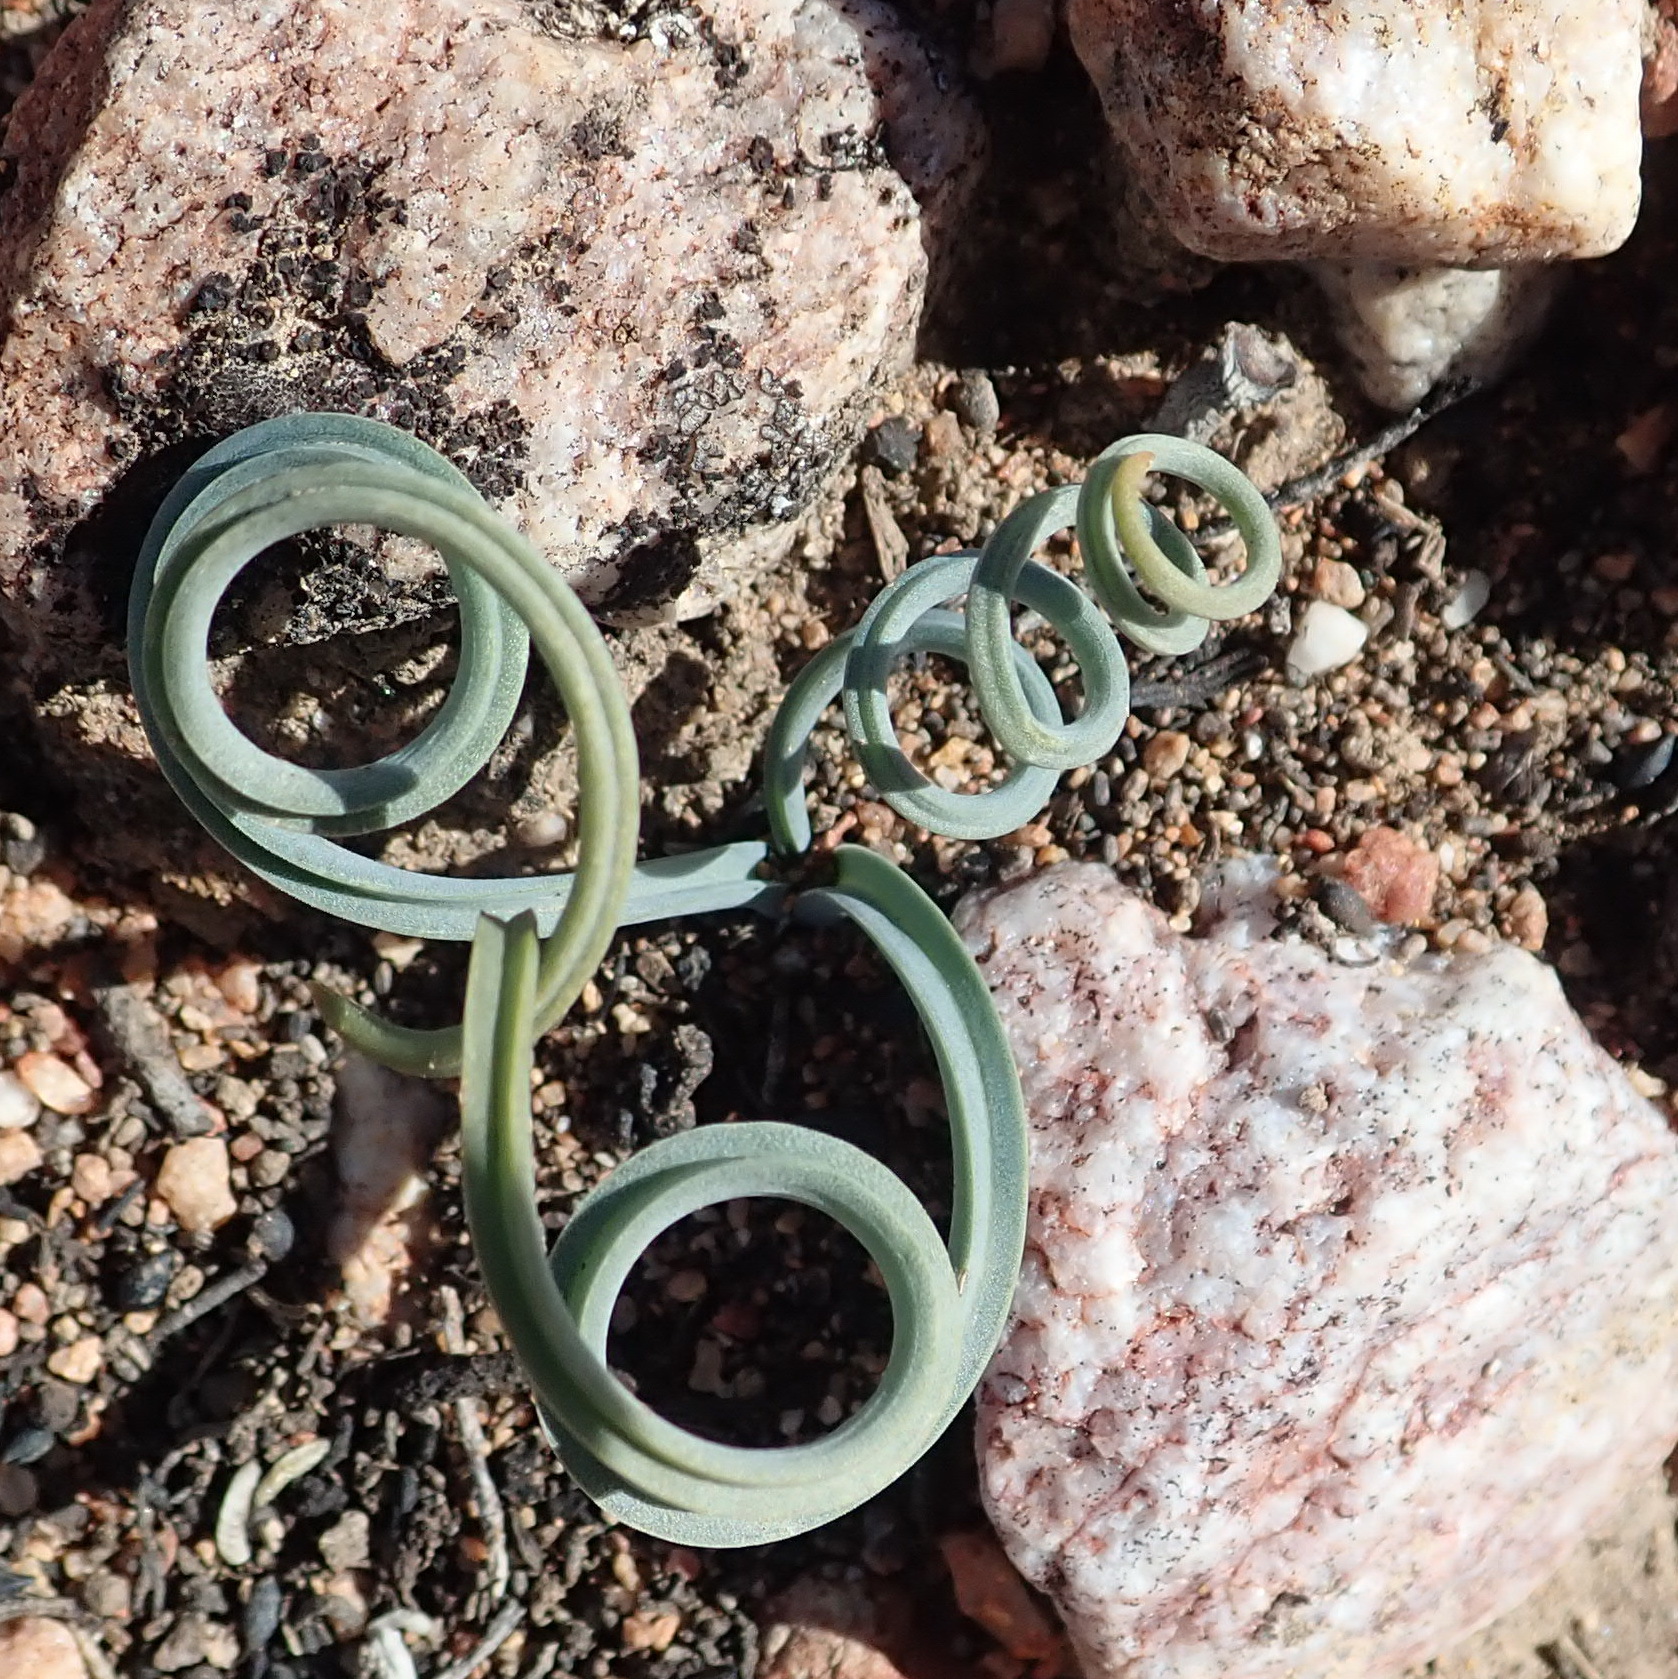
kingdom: Plantae
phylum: Tracheophyta
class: Liliopsida
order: Asparagales
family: Asparagaceae
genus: Albuca
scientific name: Albuca concordiana
